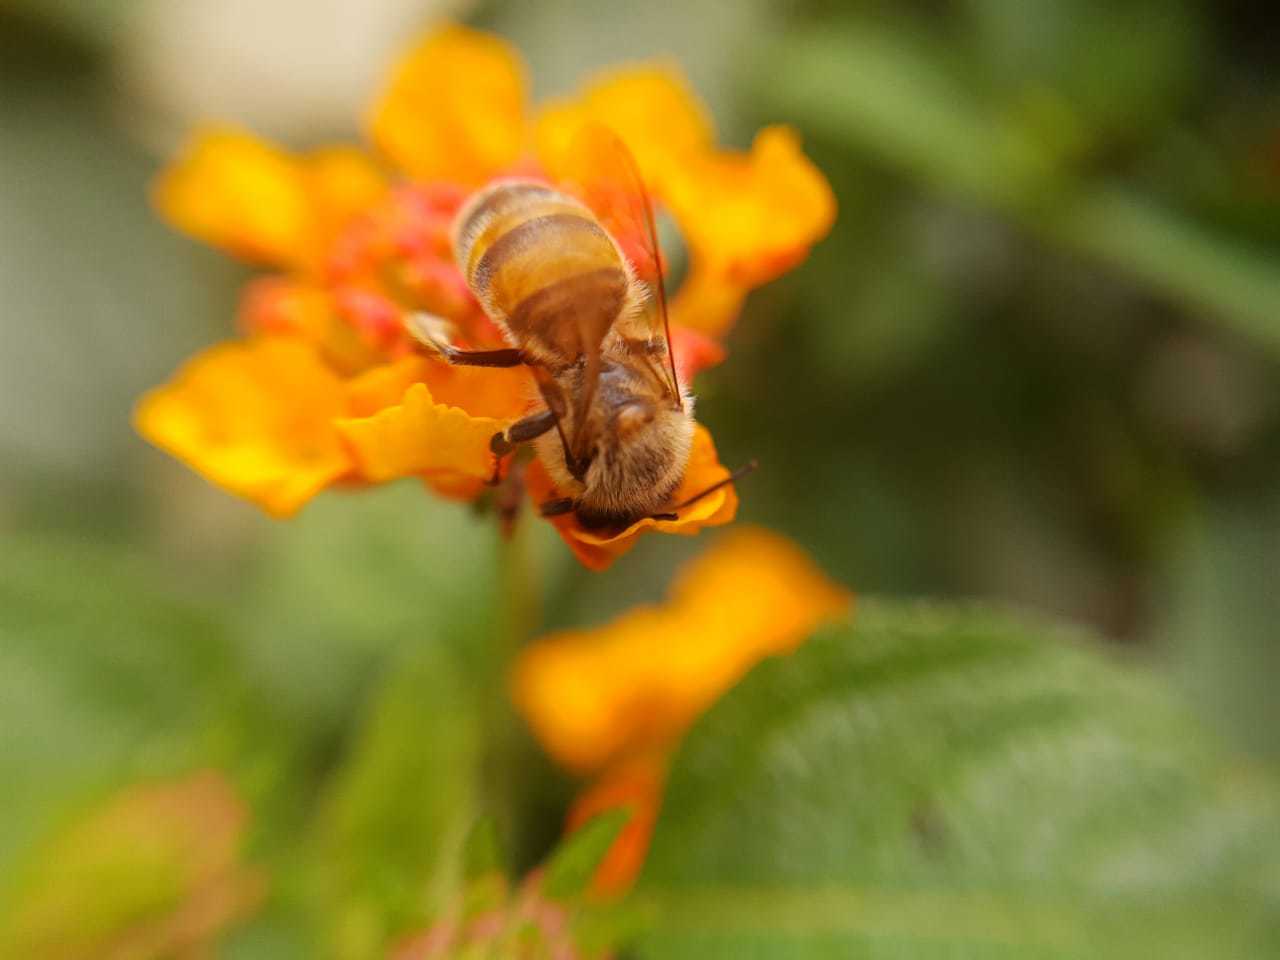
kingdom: Animalia
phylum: Arthropoda
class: Insecta
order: Hymenoptera
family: Apidae
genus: Apis
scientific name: Apis mellifera
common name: Honey bee
